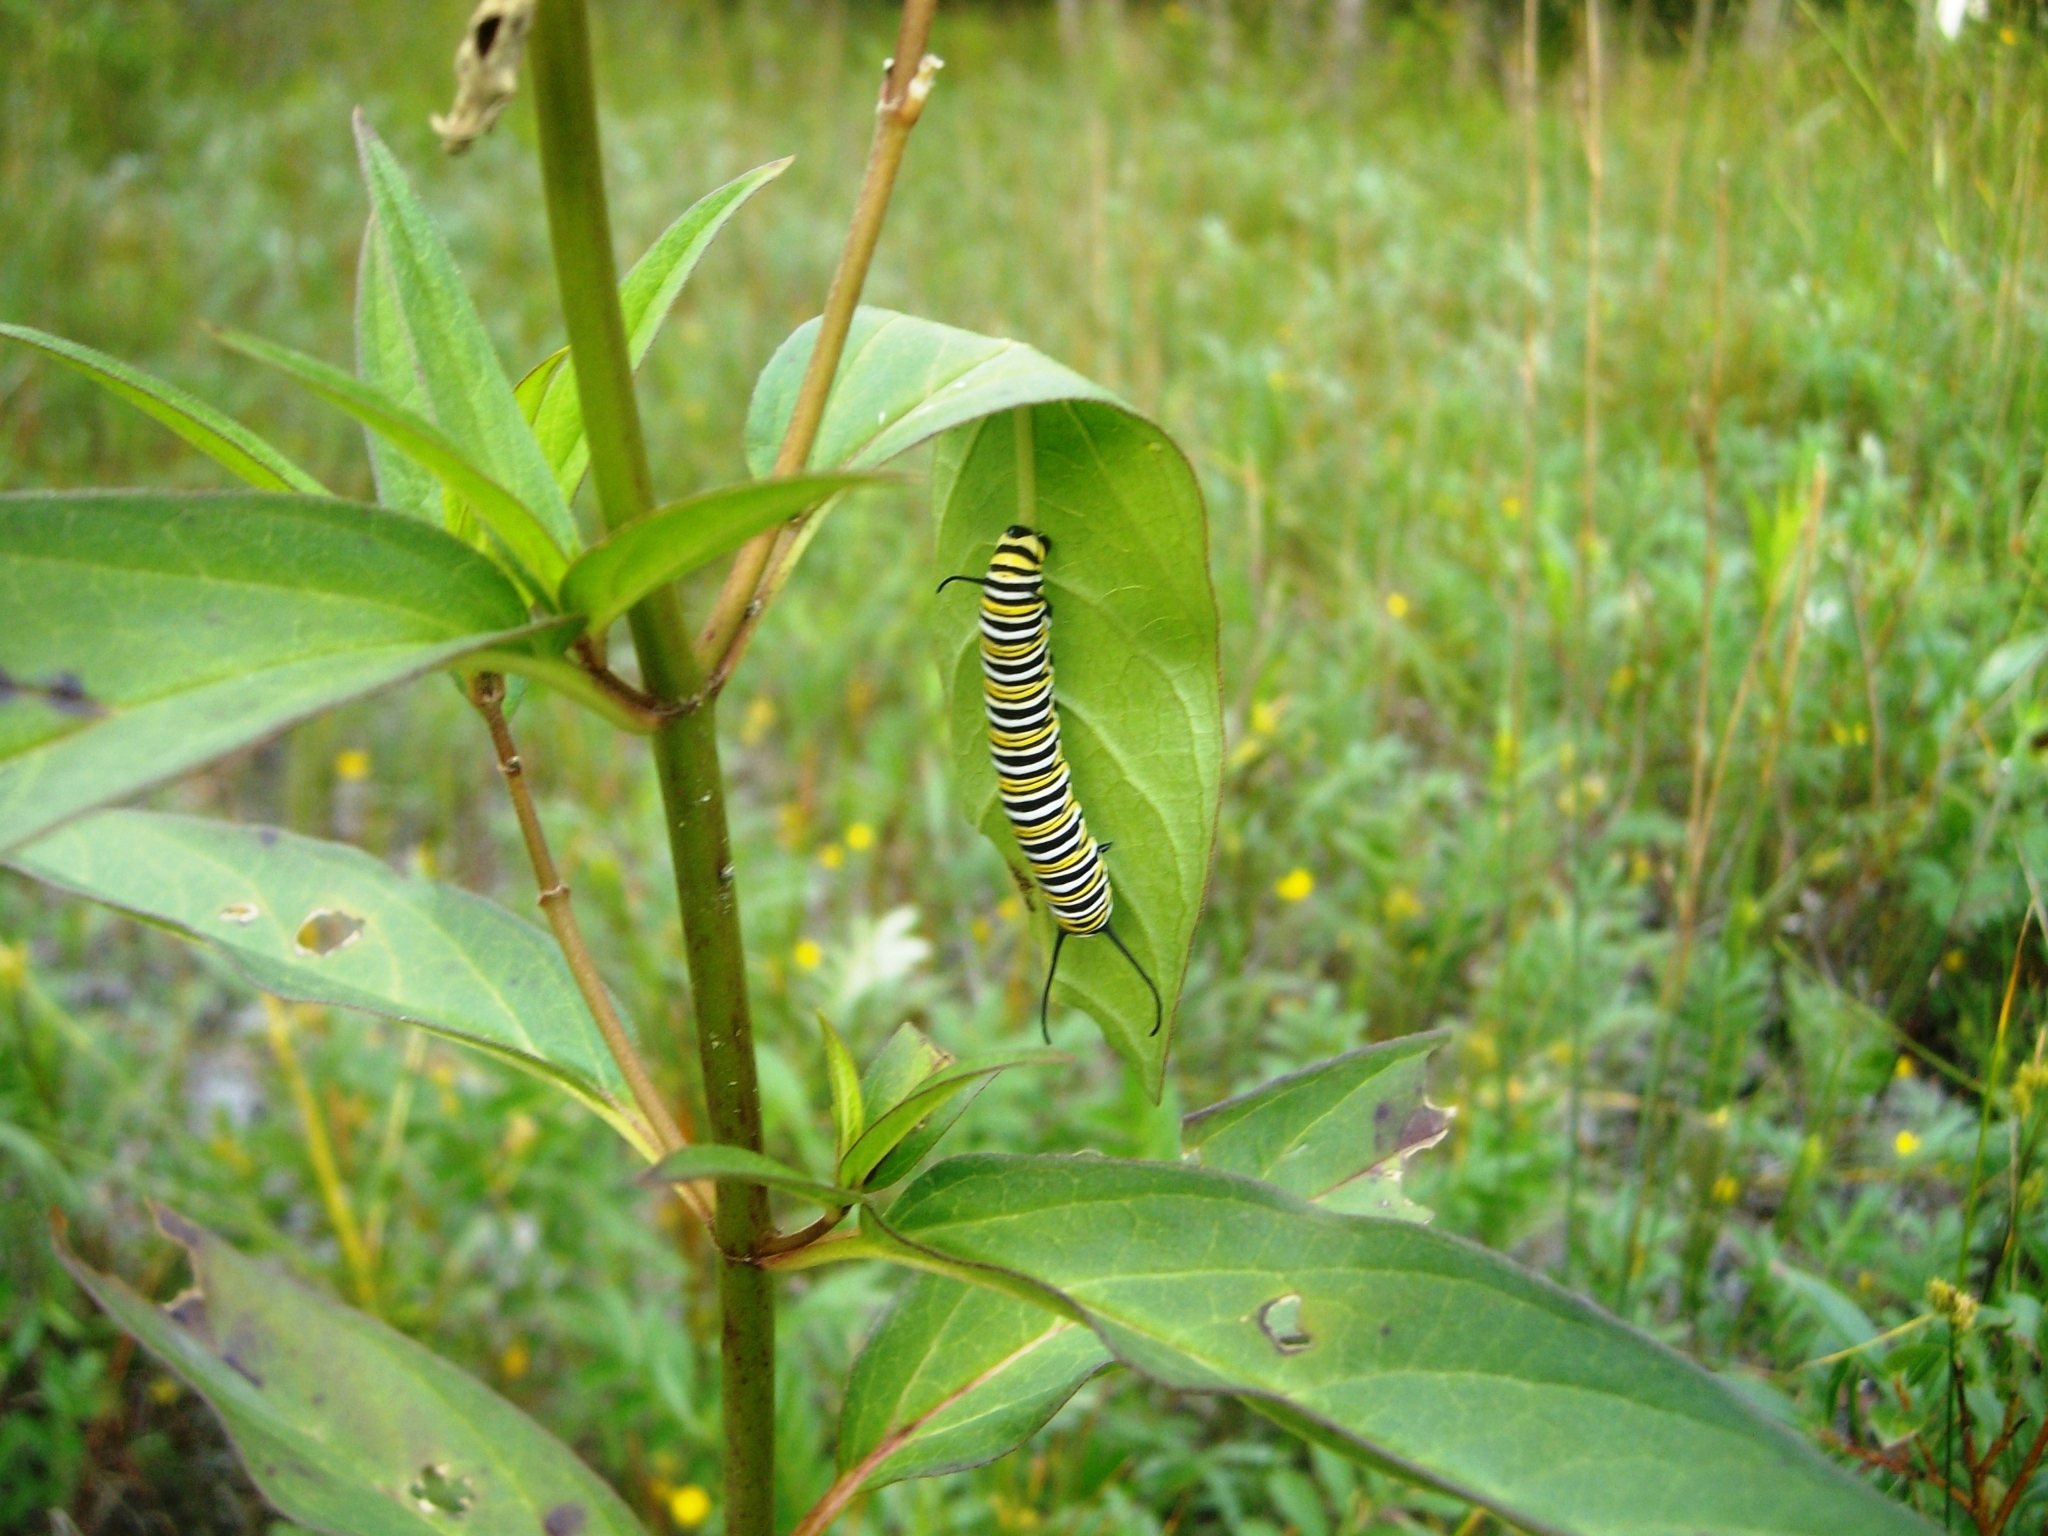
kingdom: Animalia
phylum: Arthropoda
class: Insecta
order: Lepidoptera
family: Nymphalidae
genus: Danaus
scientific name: Danaus plexippus
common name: Monarch
